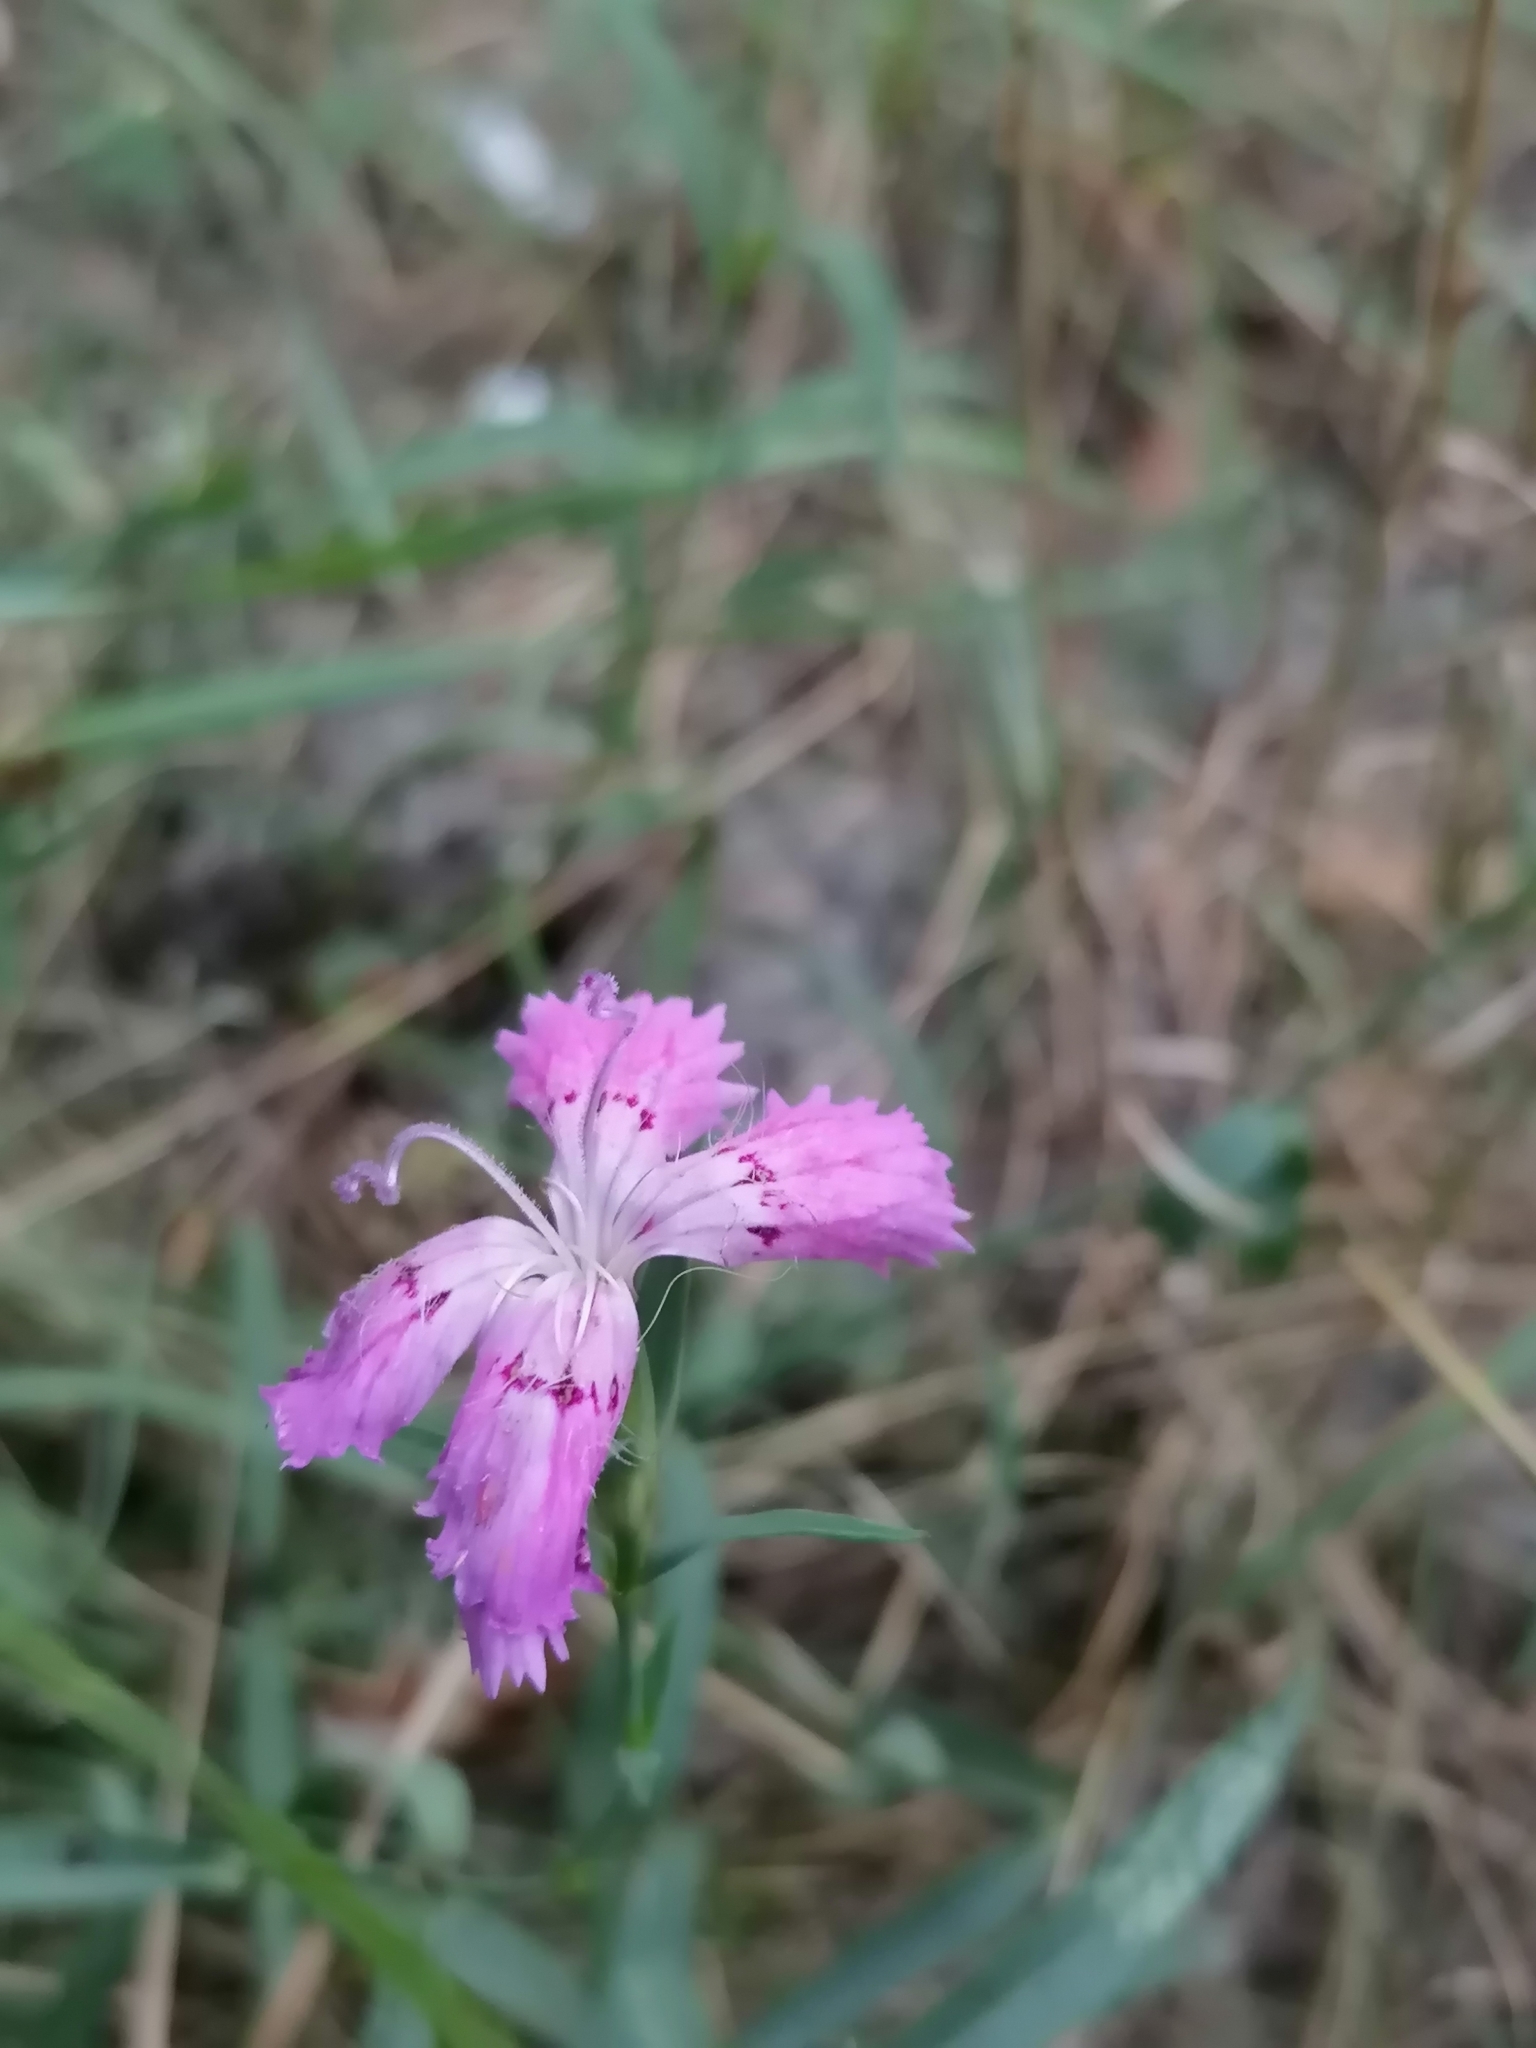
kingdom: Plantae
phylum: Tracheophyta
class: Magnoliopsida
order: Caryophyllales
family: Caryophyllaceae
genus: Dianthus
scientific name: Dianthus chinensis
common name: Rainbow pink
